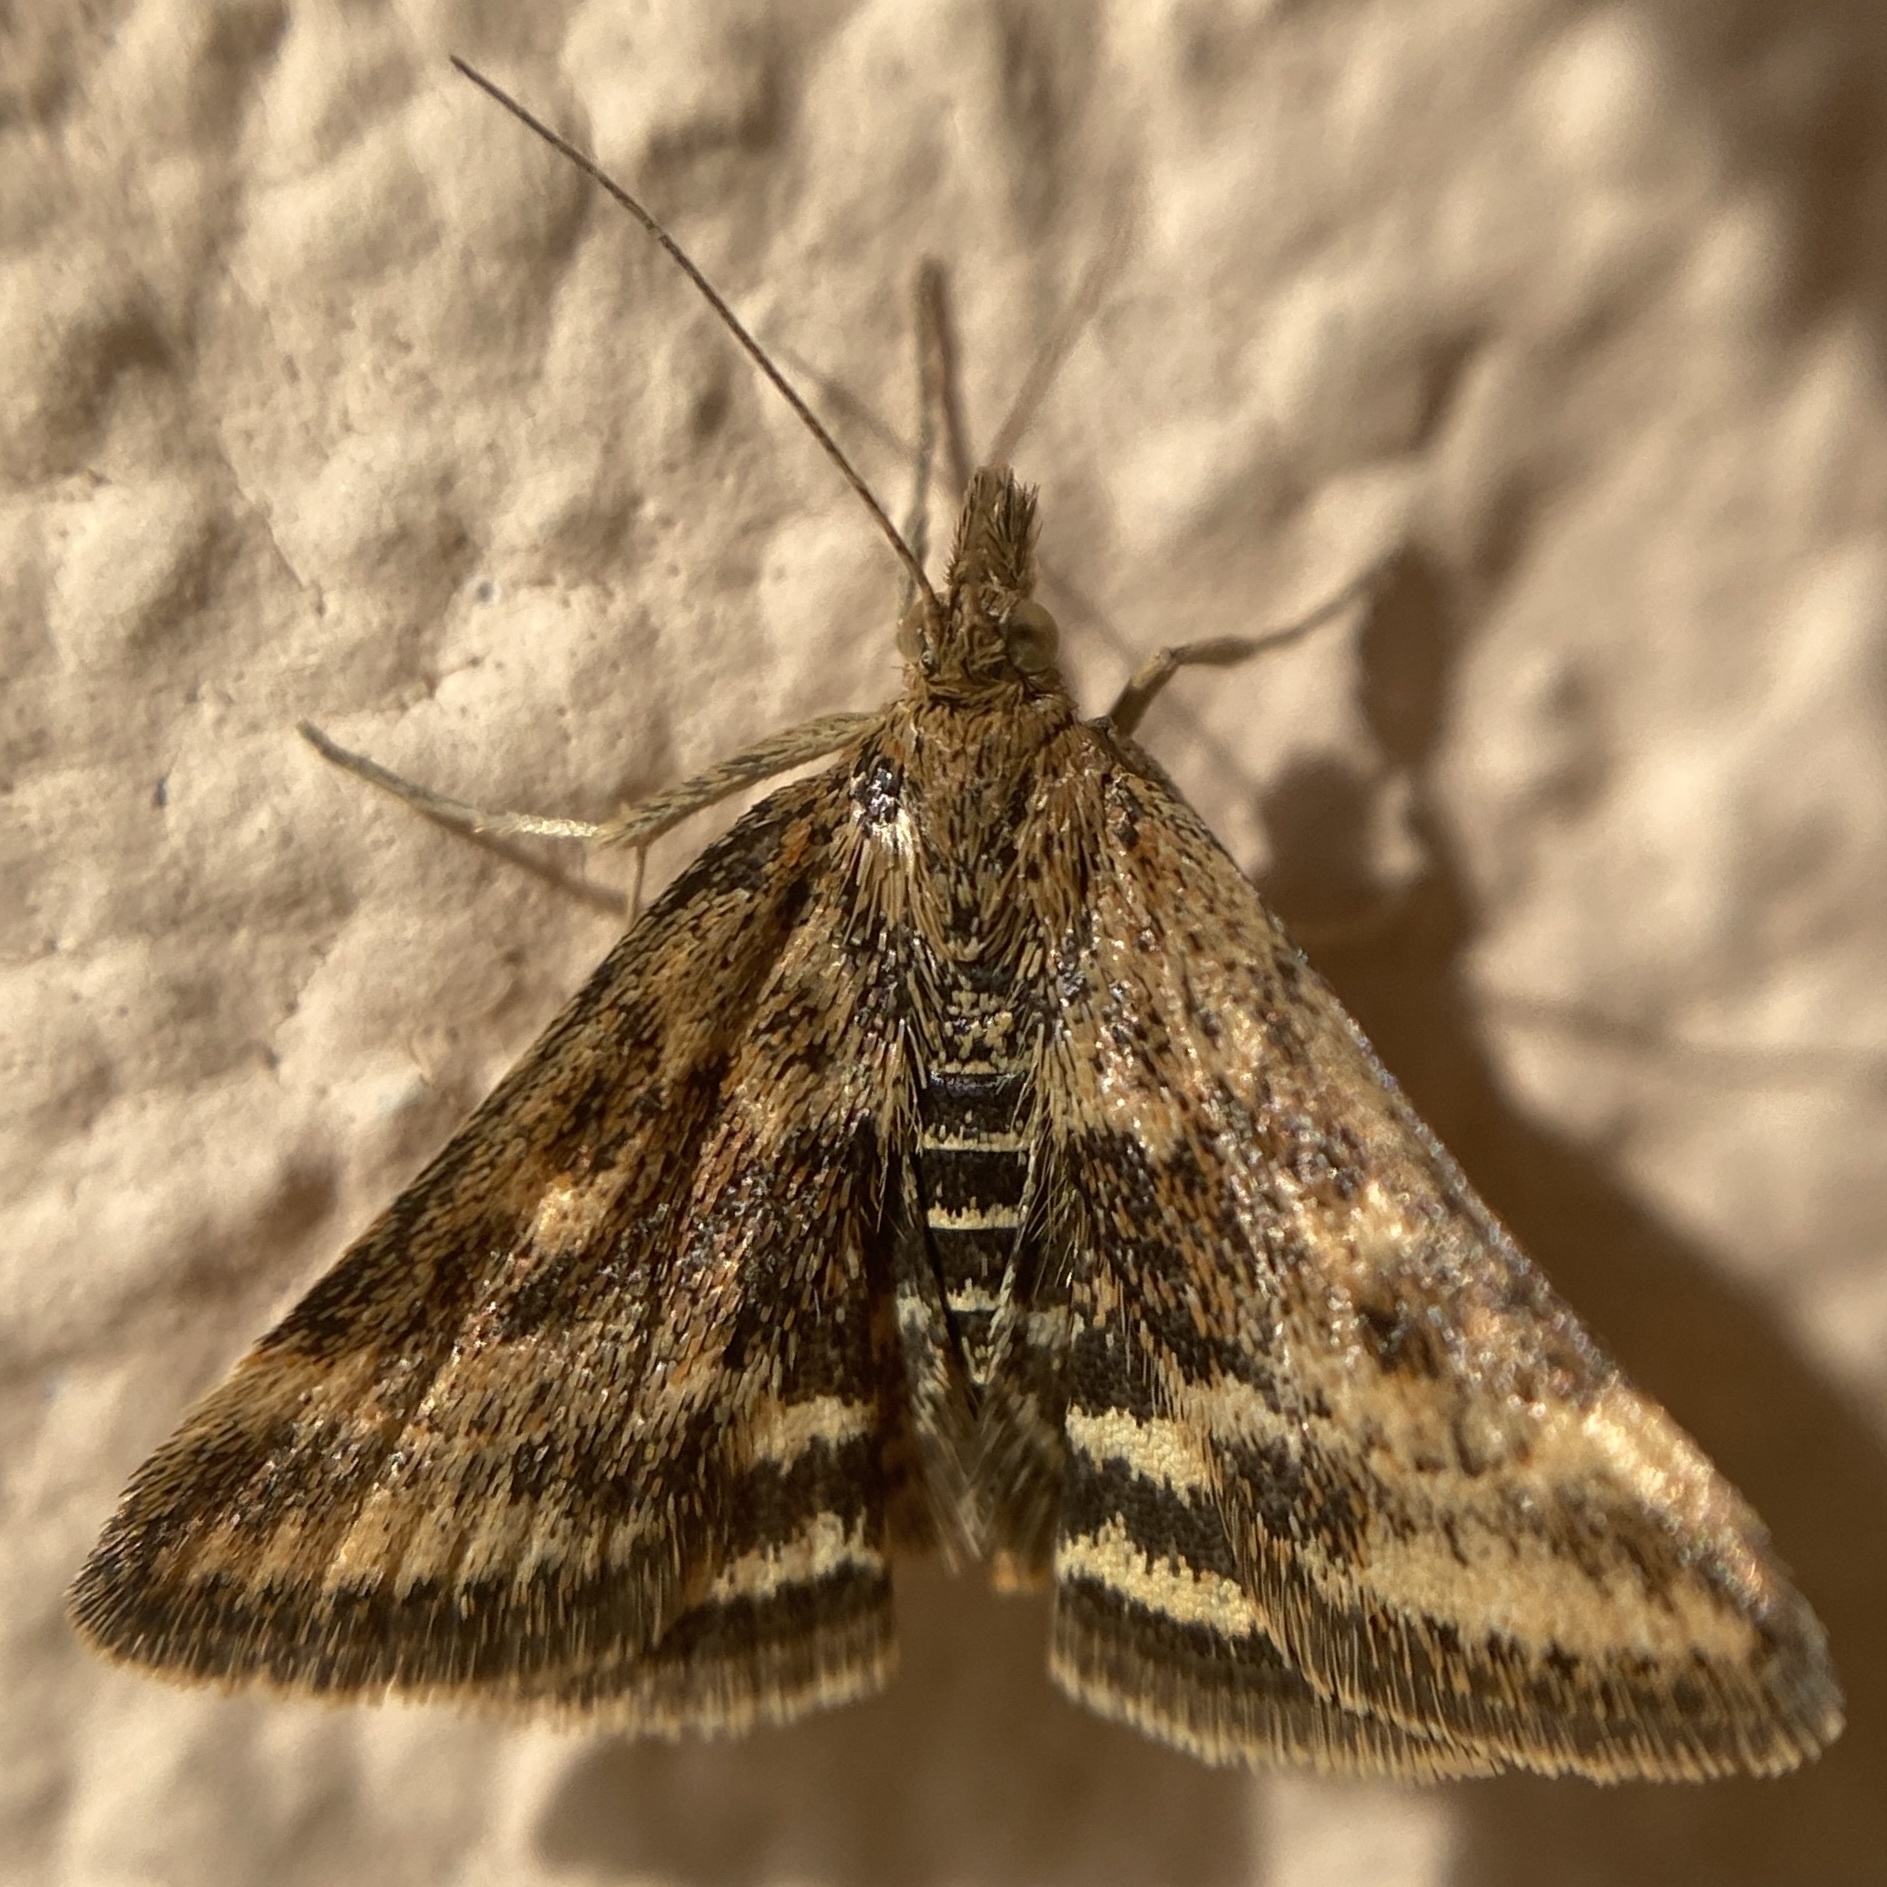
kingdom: Animalia
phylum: Arthropoda
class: Insecta
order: Lepidoptera
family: Crambidae
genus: Pyrausta
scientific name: Pyrausta despicata
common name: Straw-barred pearl
